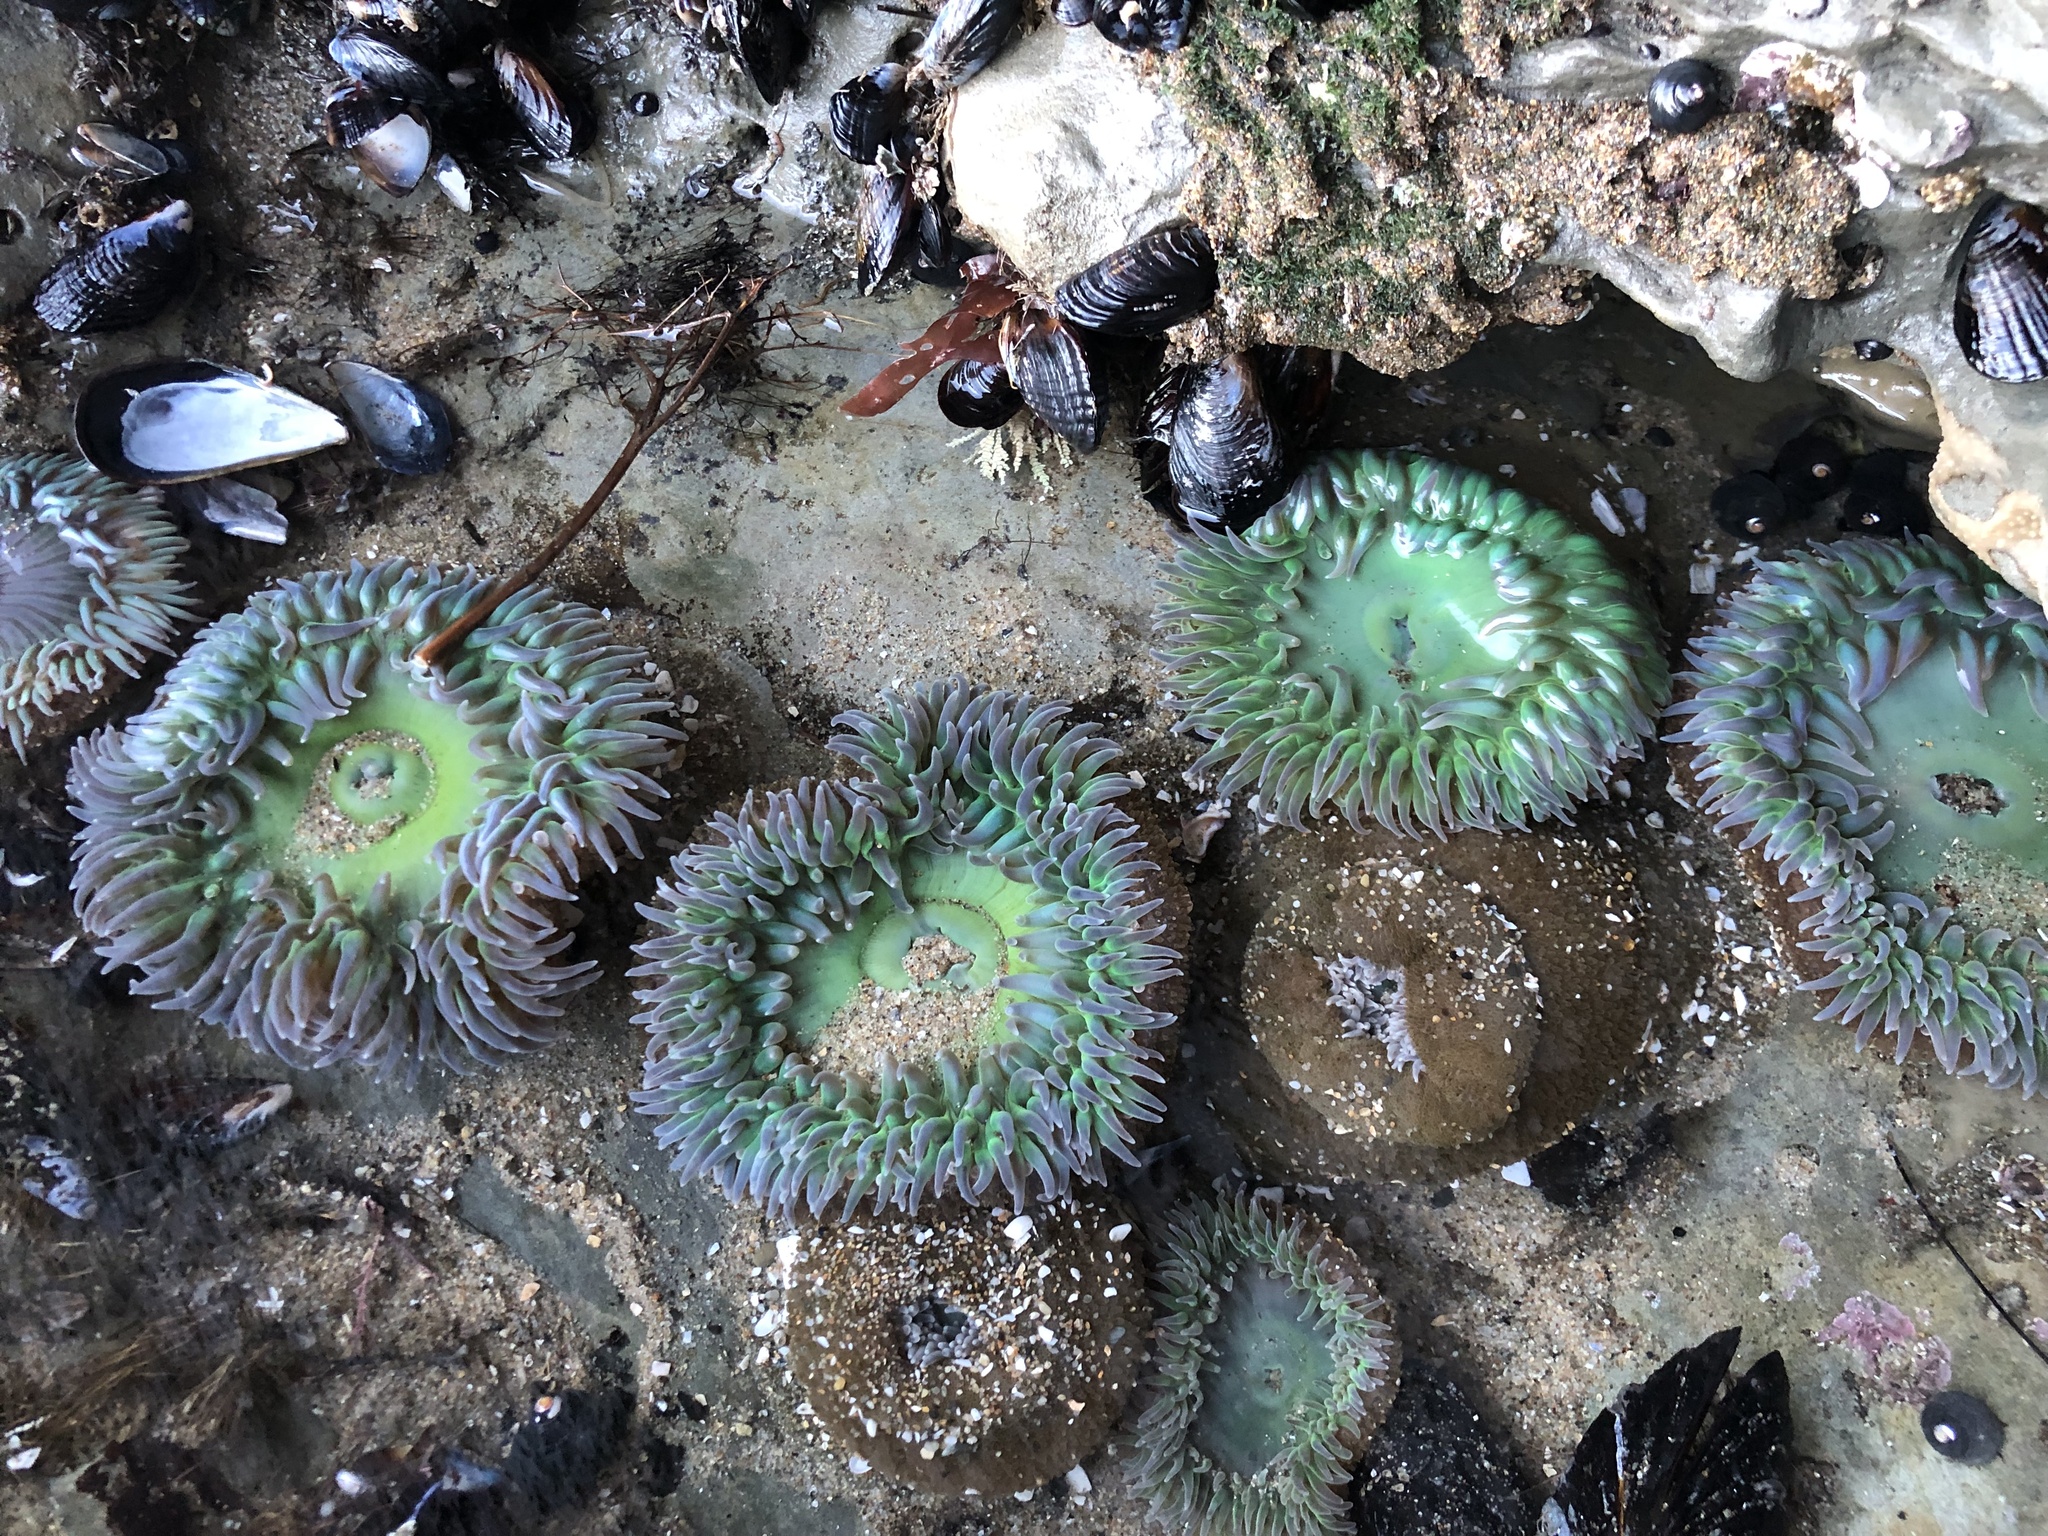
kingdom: Animalia
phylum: Cnidaria
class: Anthozoa
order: Actiniaria
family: Actiniidae
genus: Anthopleura
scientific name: Anthopleura xanthogrammica
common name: Giant green anemone
